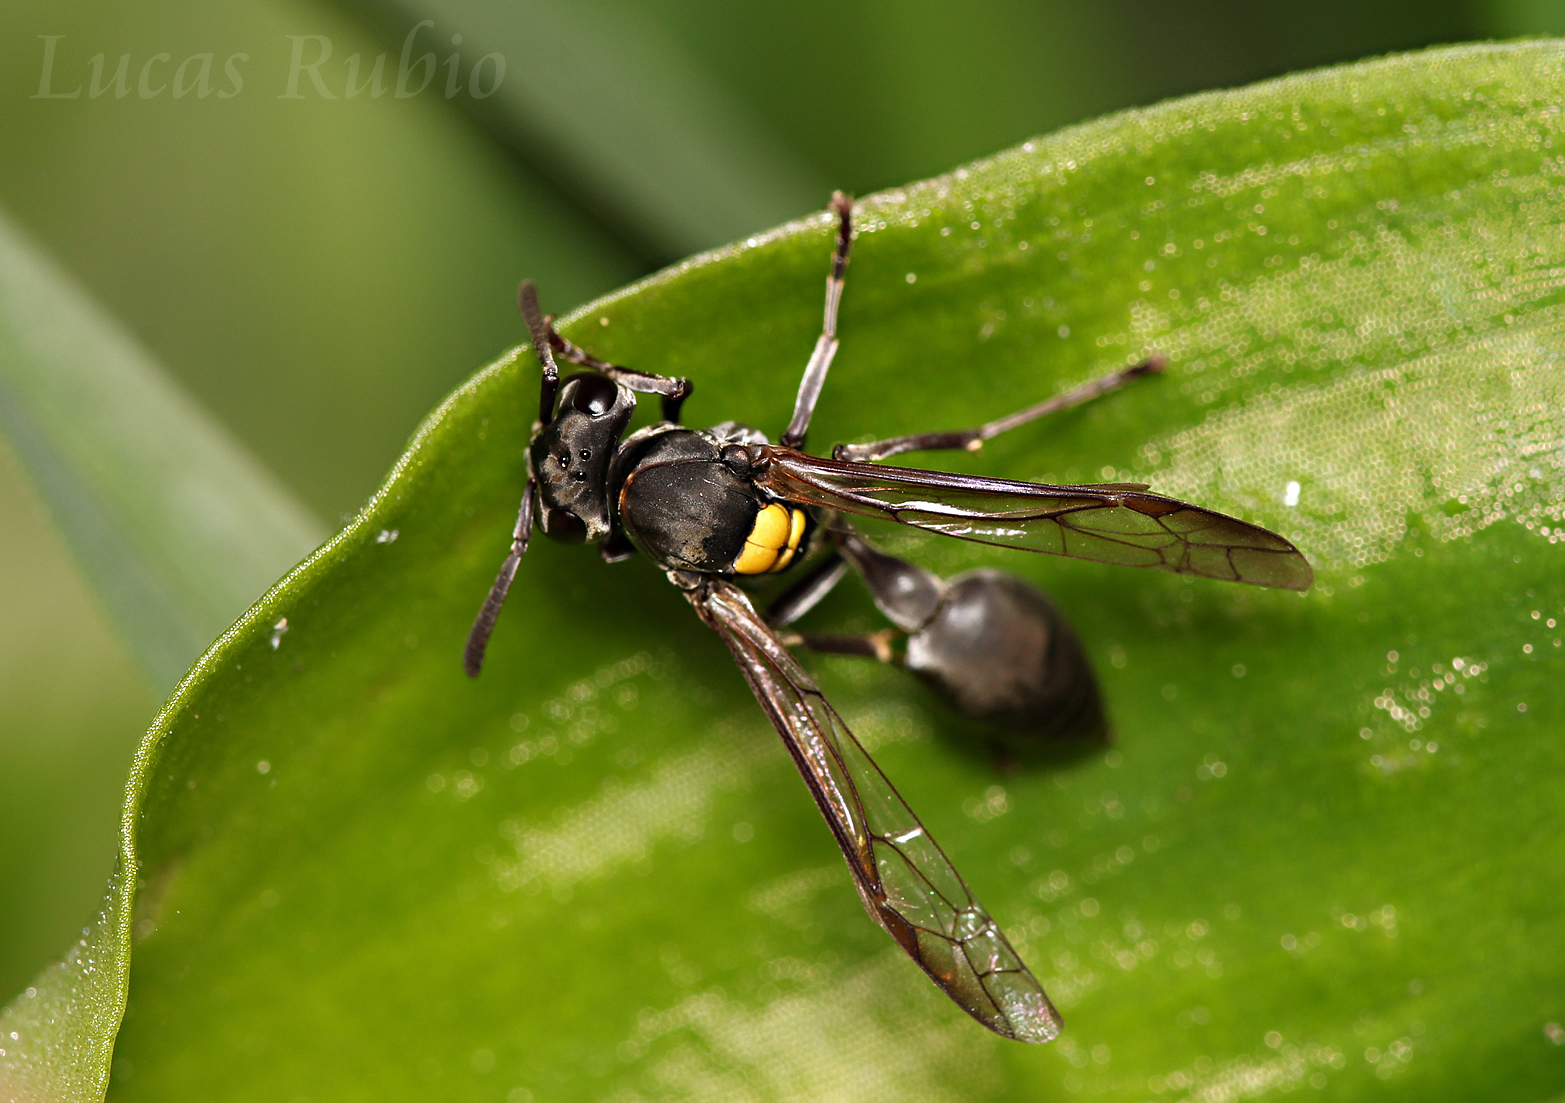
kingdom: Animalia
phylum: Arthropoda
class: Insecta
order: Hymenoptera
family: Eumenidae
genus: Polybia
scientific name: Polybia scutellaris
